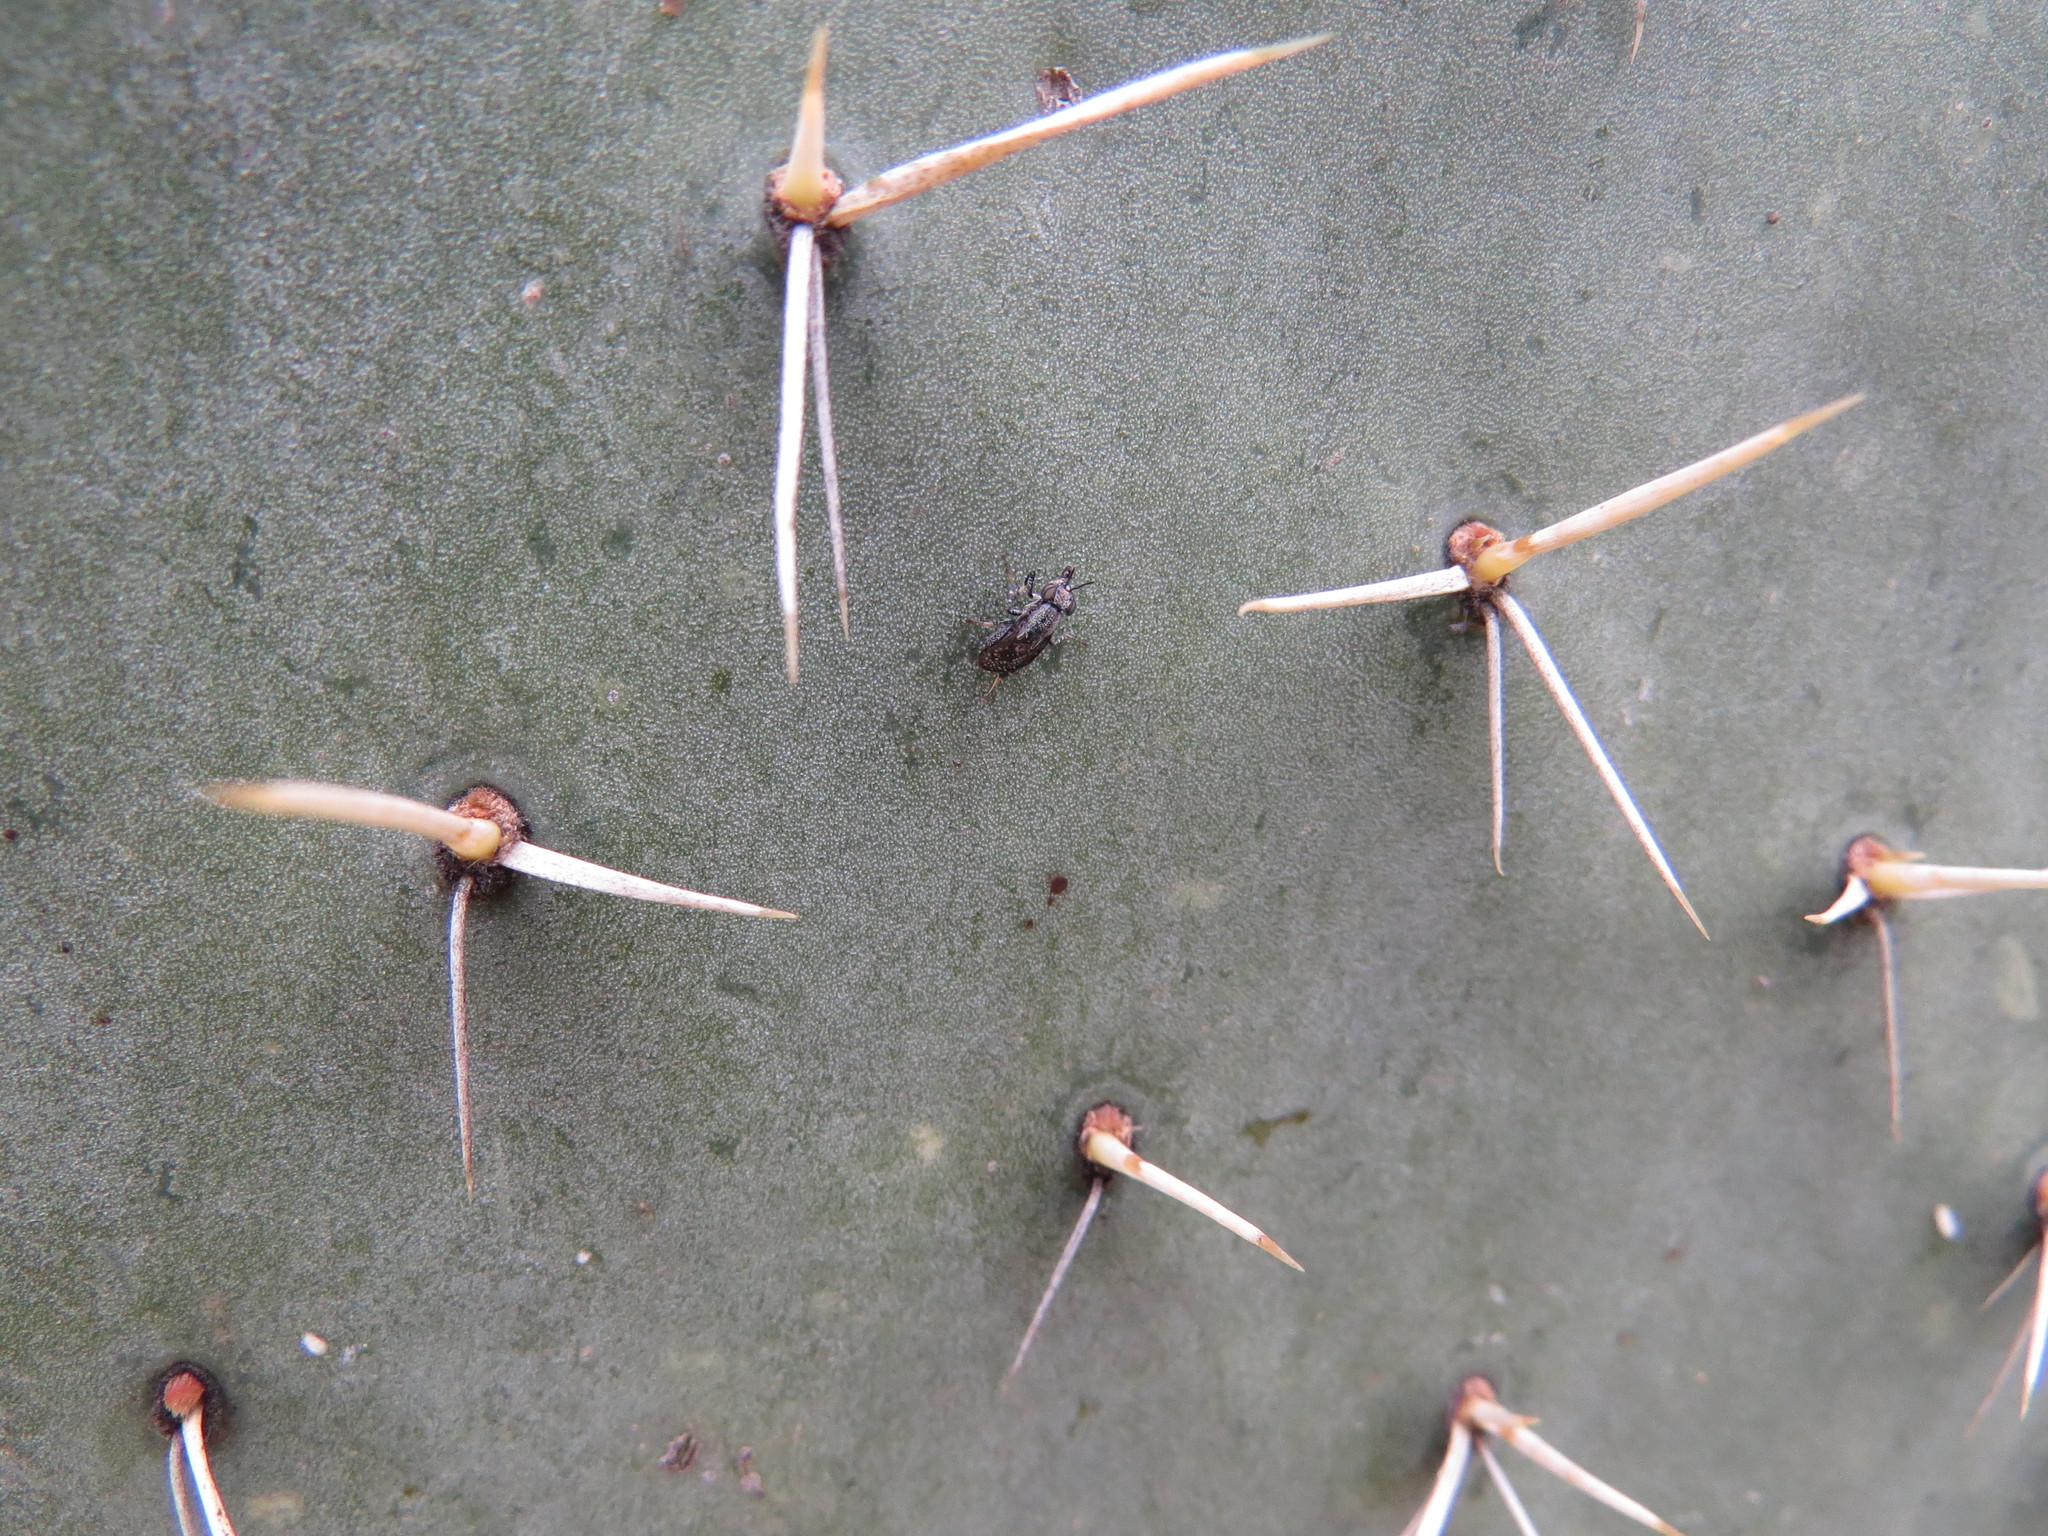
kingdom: Animalia
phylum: Arthropoda
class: Insecta
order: Diptera
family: Ulidiidae
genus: Stictomyia
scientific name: Stictomyia longicornis
